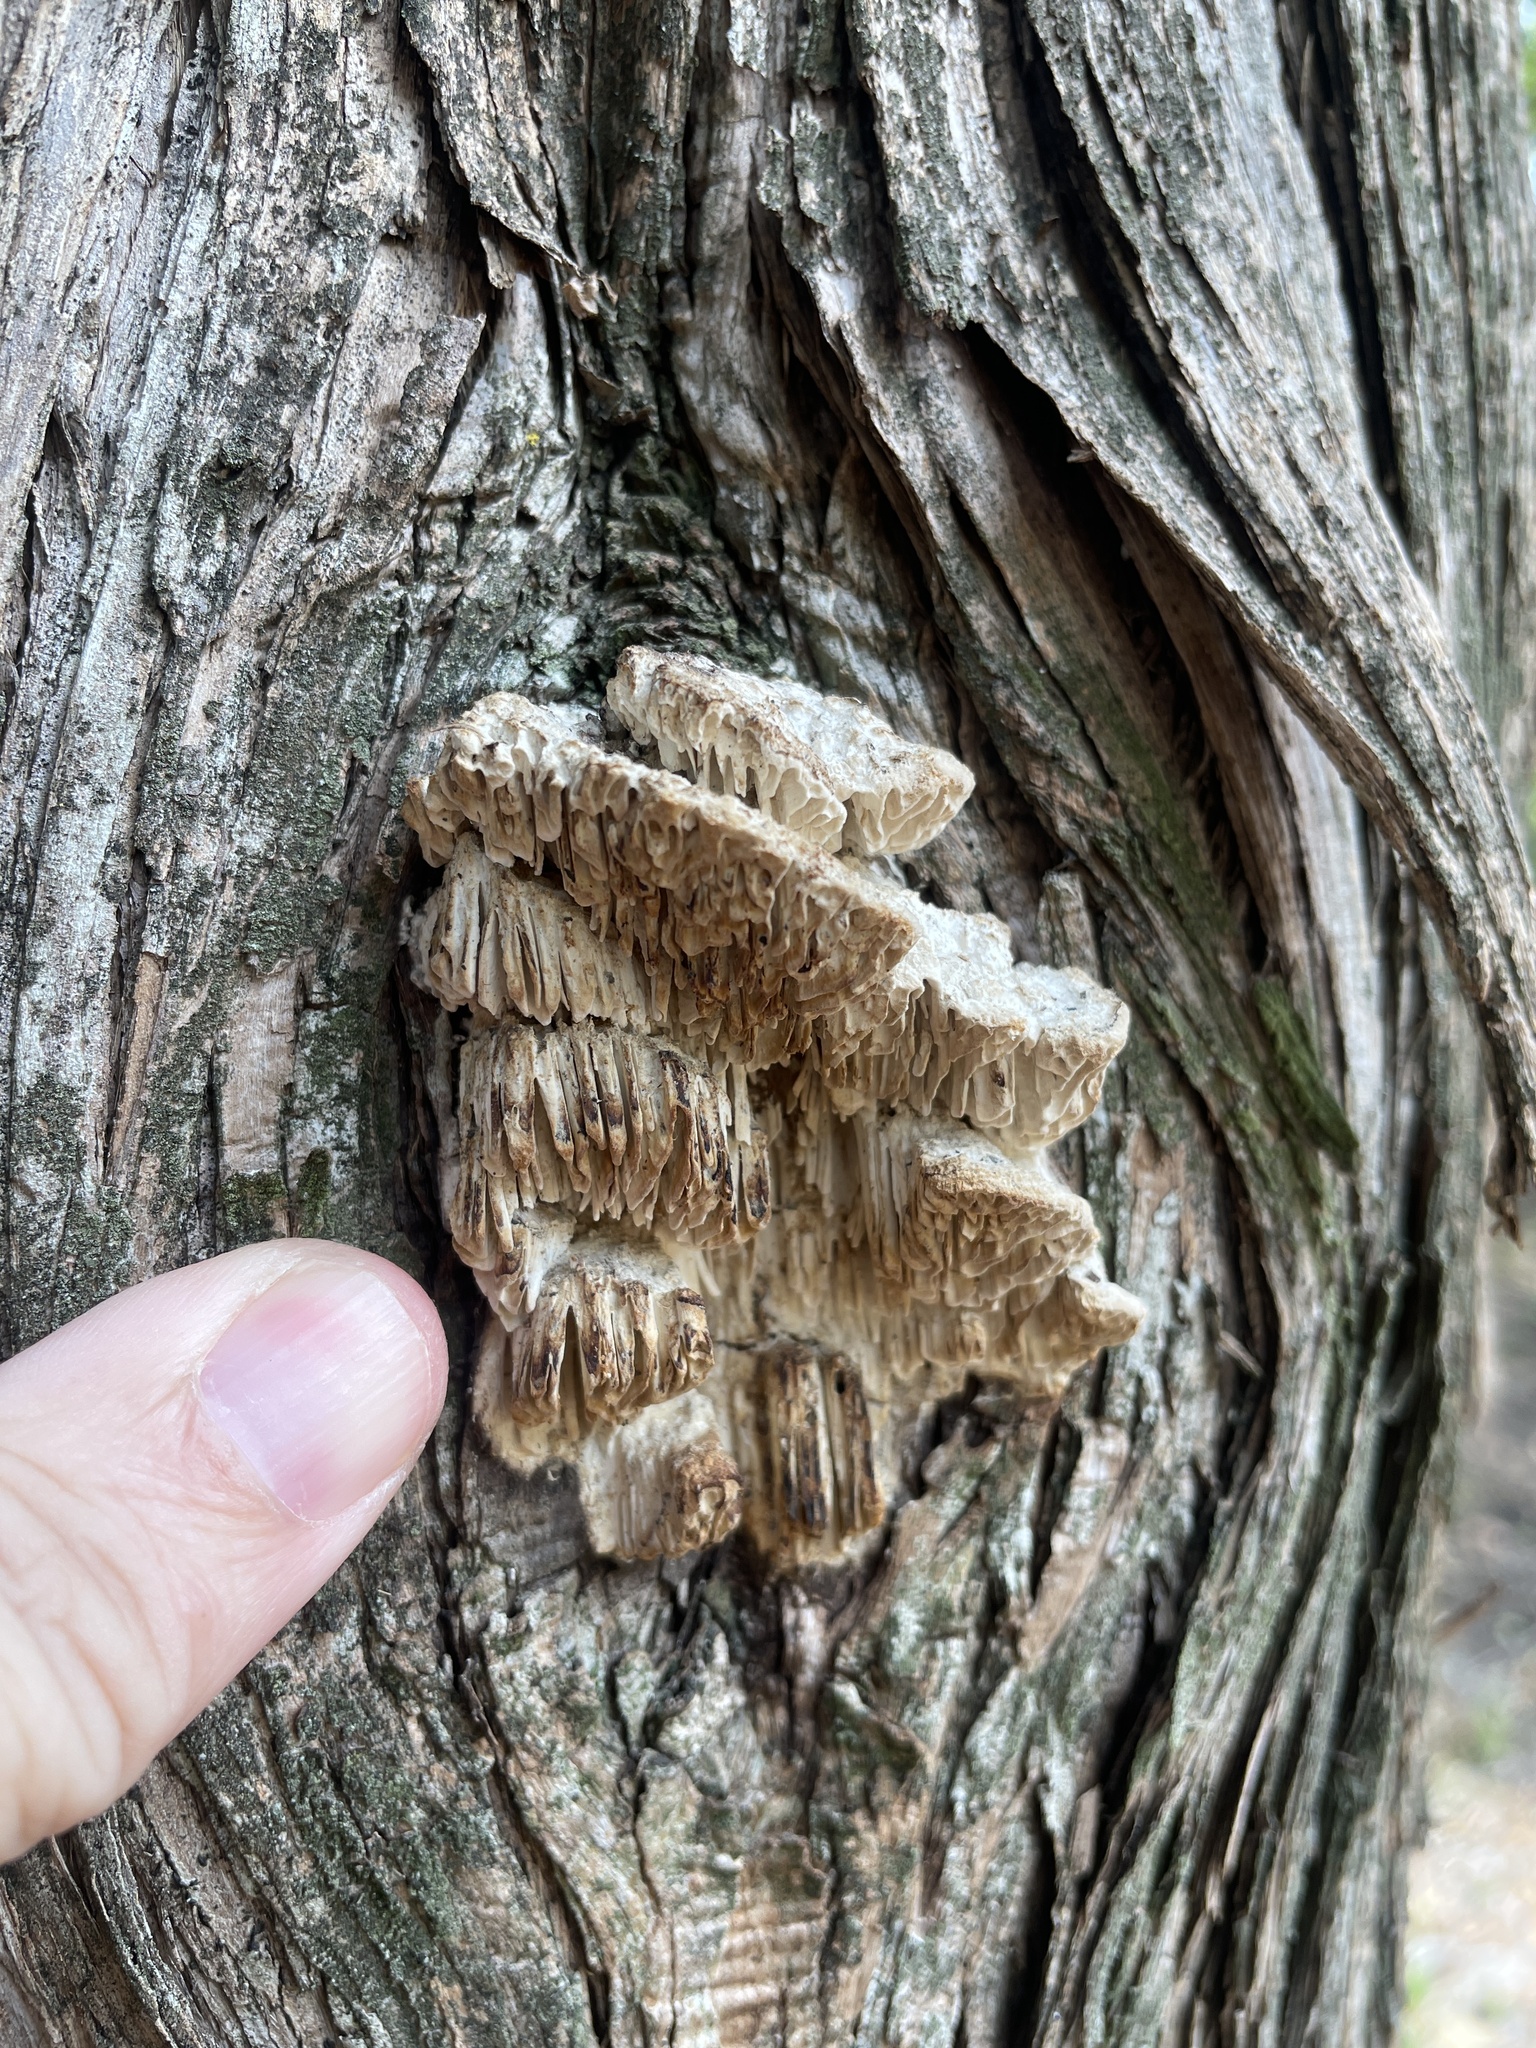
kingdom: Fungi
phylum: Basidiomycota
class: Agaricomycetes
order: Polyporales
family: Fomitopsidaceae
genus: Fomitopsis
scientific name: Fomitopsis
